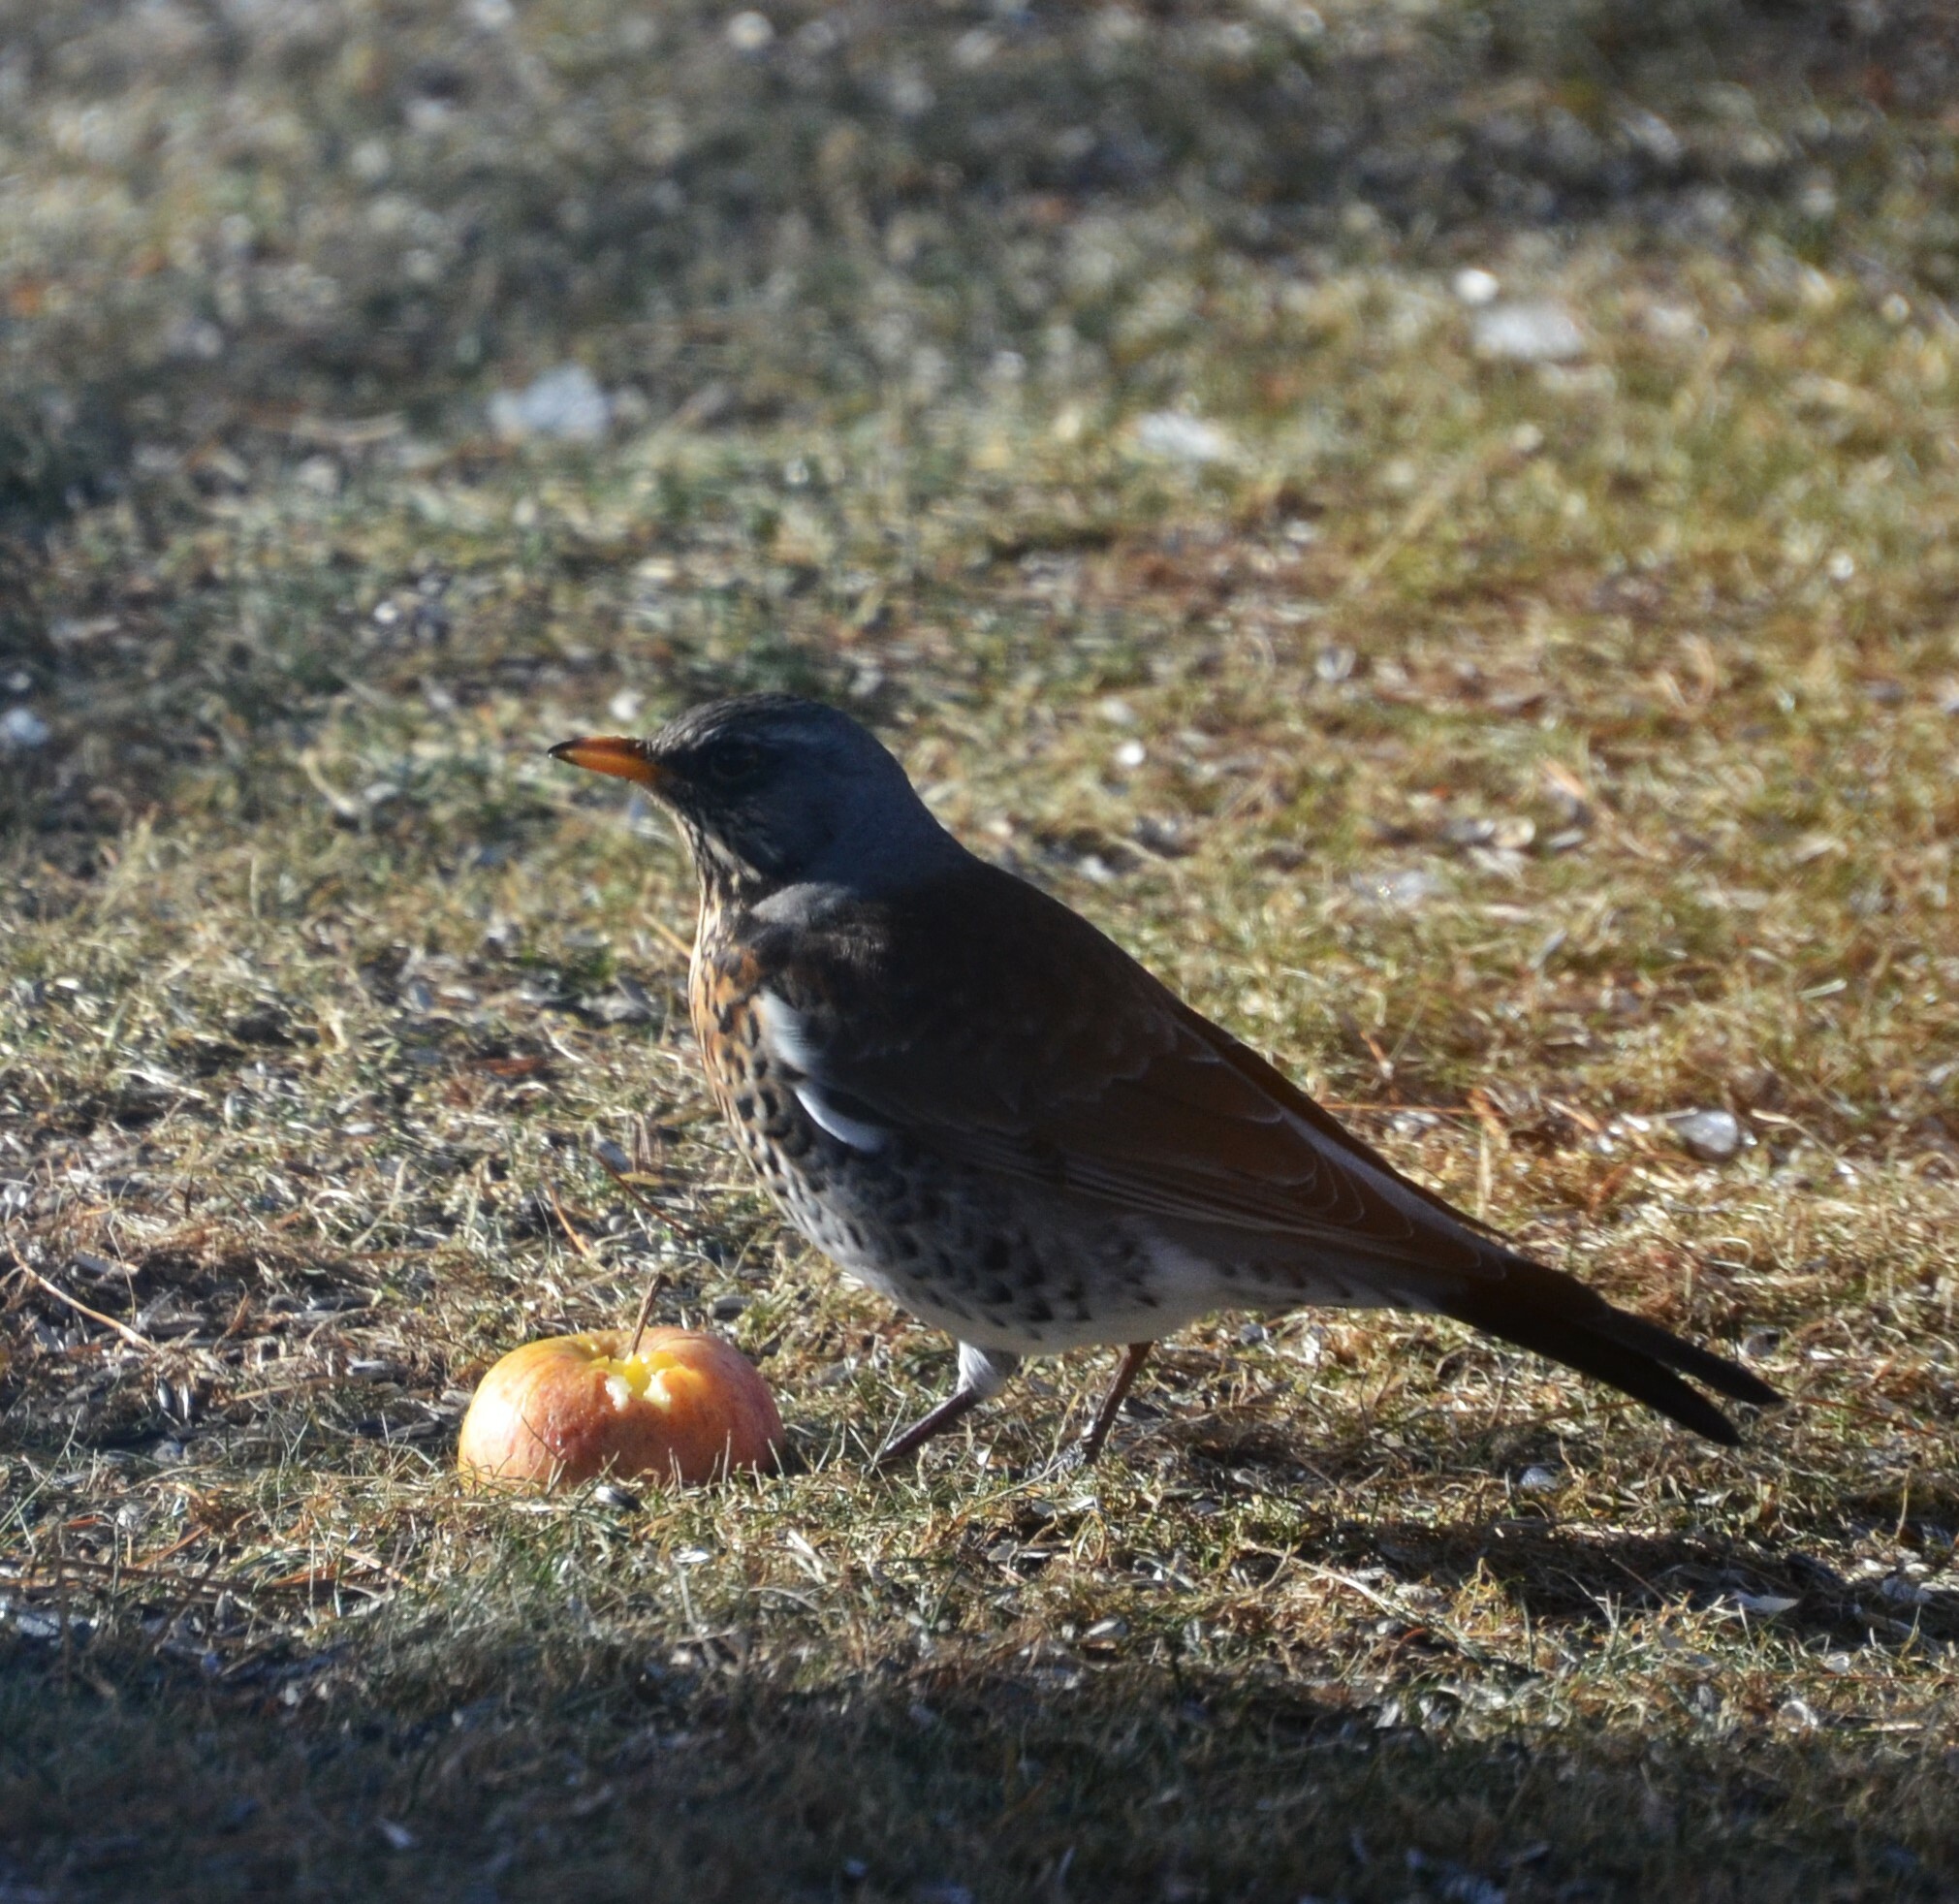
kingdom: Animalia
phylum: Chordata
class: Aves
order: Passeriformes
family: Turdidae
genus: Turdus
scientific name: Turdus pilaris
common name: Fieldfare
